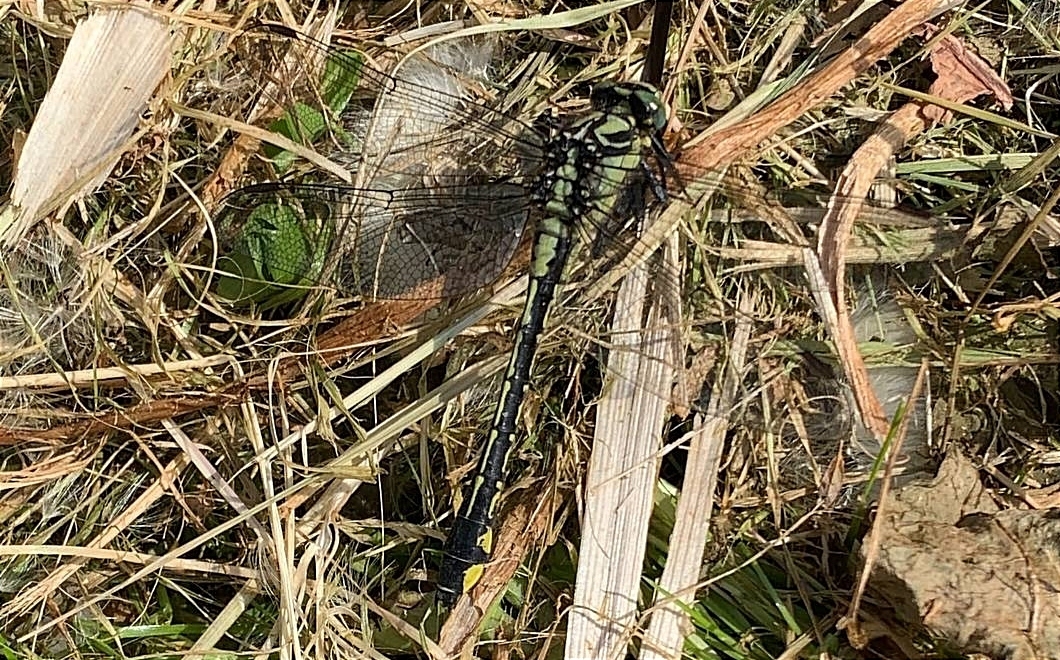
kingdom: Animalia
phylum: Arthropoda
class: Insecta
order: Odonata
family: Gomphidae
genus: Gomphus
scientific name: Gomphus vulgatissimus
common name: Club-tailed dragonfly
